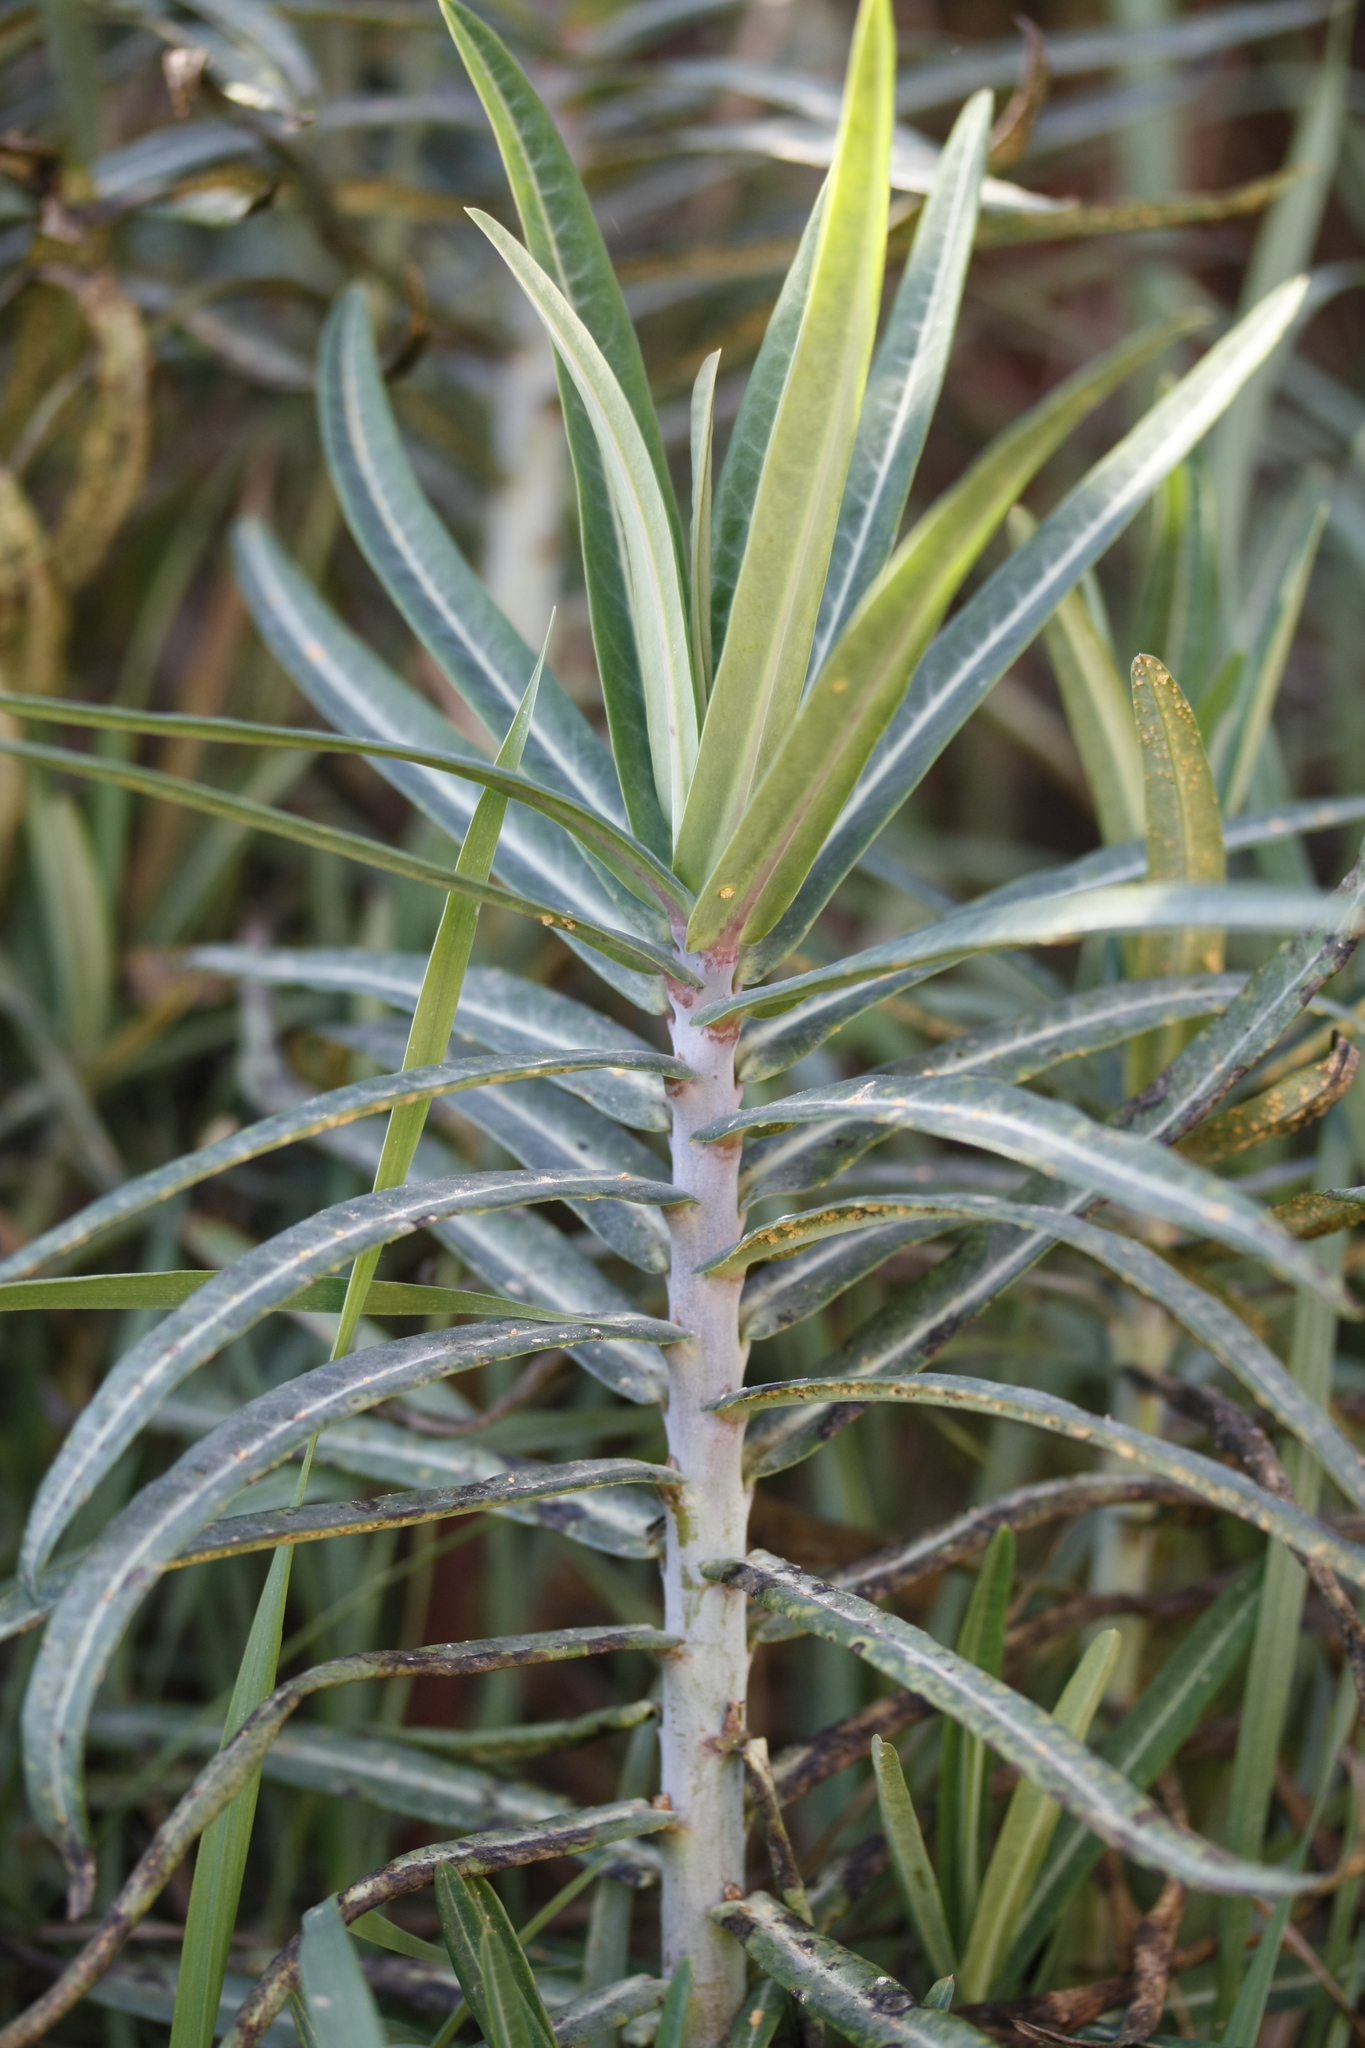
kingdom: Plantae
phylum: Tracheophyta
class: Magnoliopsida
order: Malpighiales
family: Euphorbiaceae
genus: Euphorbia
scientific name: Euphorbia lathyris
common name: Caper spurge
